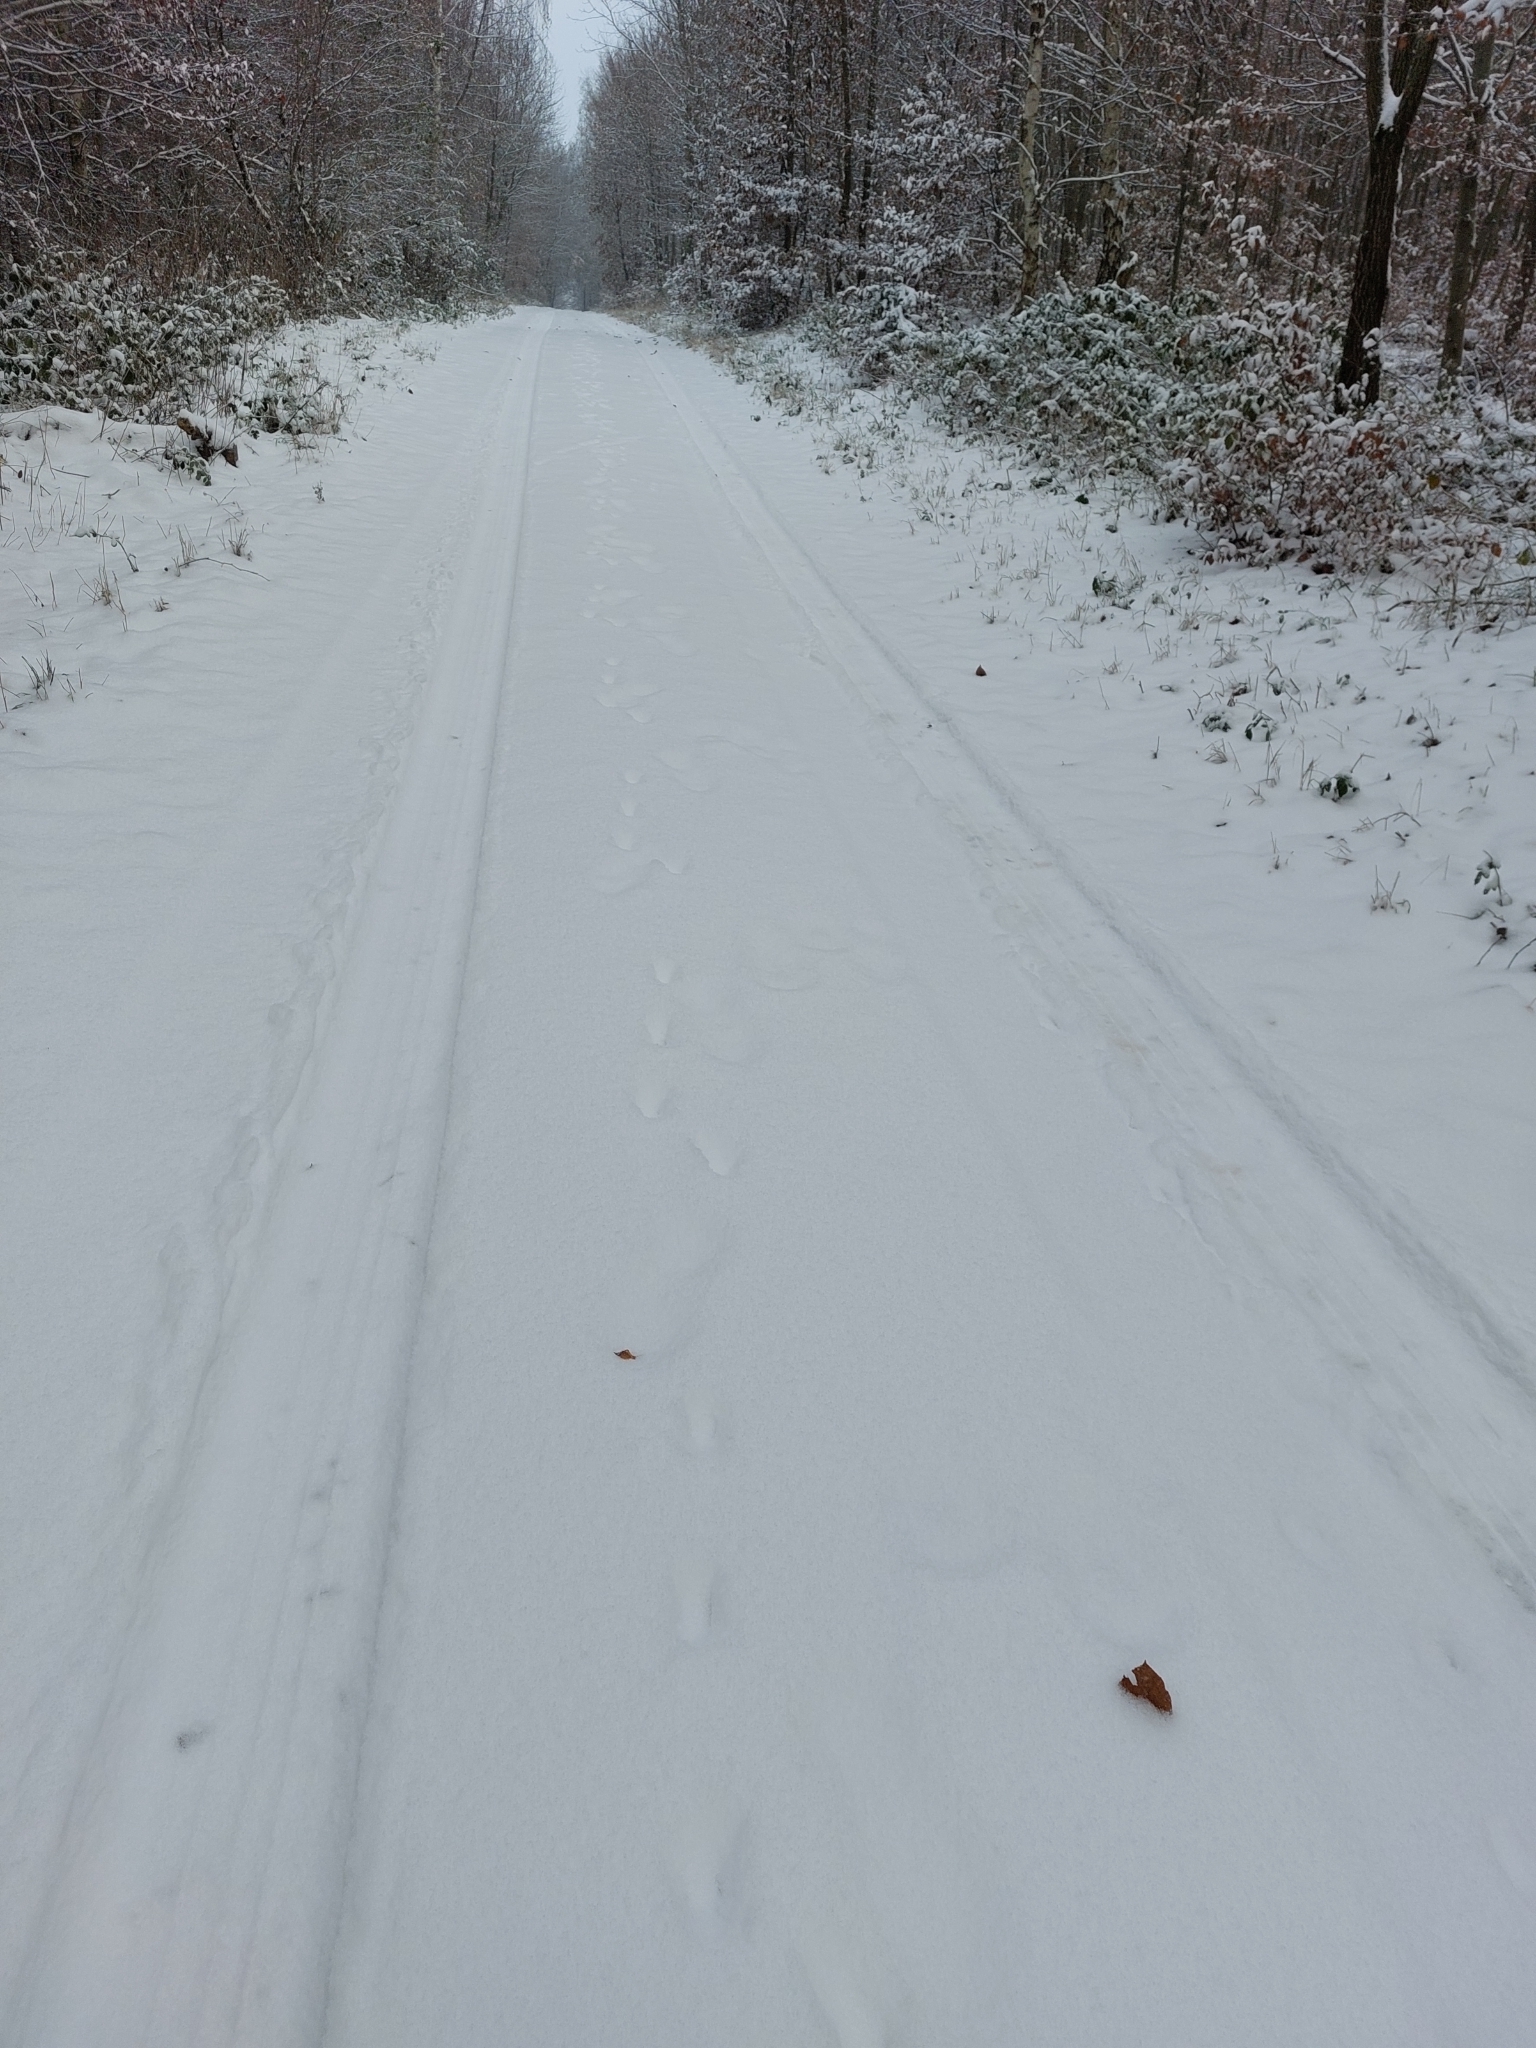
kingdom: Animalia
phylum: Chordata
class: Mammalia
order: Artiodactyla
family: Cervidae
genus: Capreolus
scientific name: Capreolus capreolus
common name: Western roe deer
